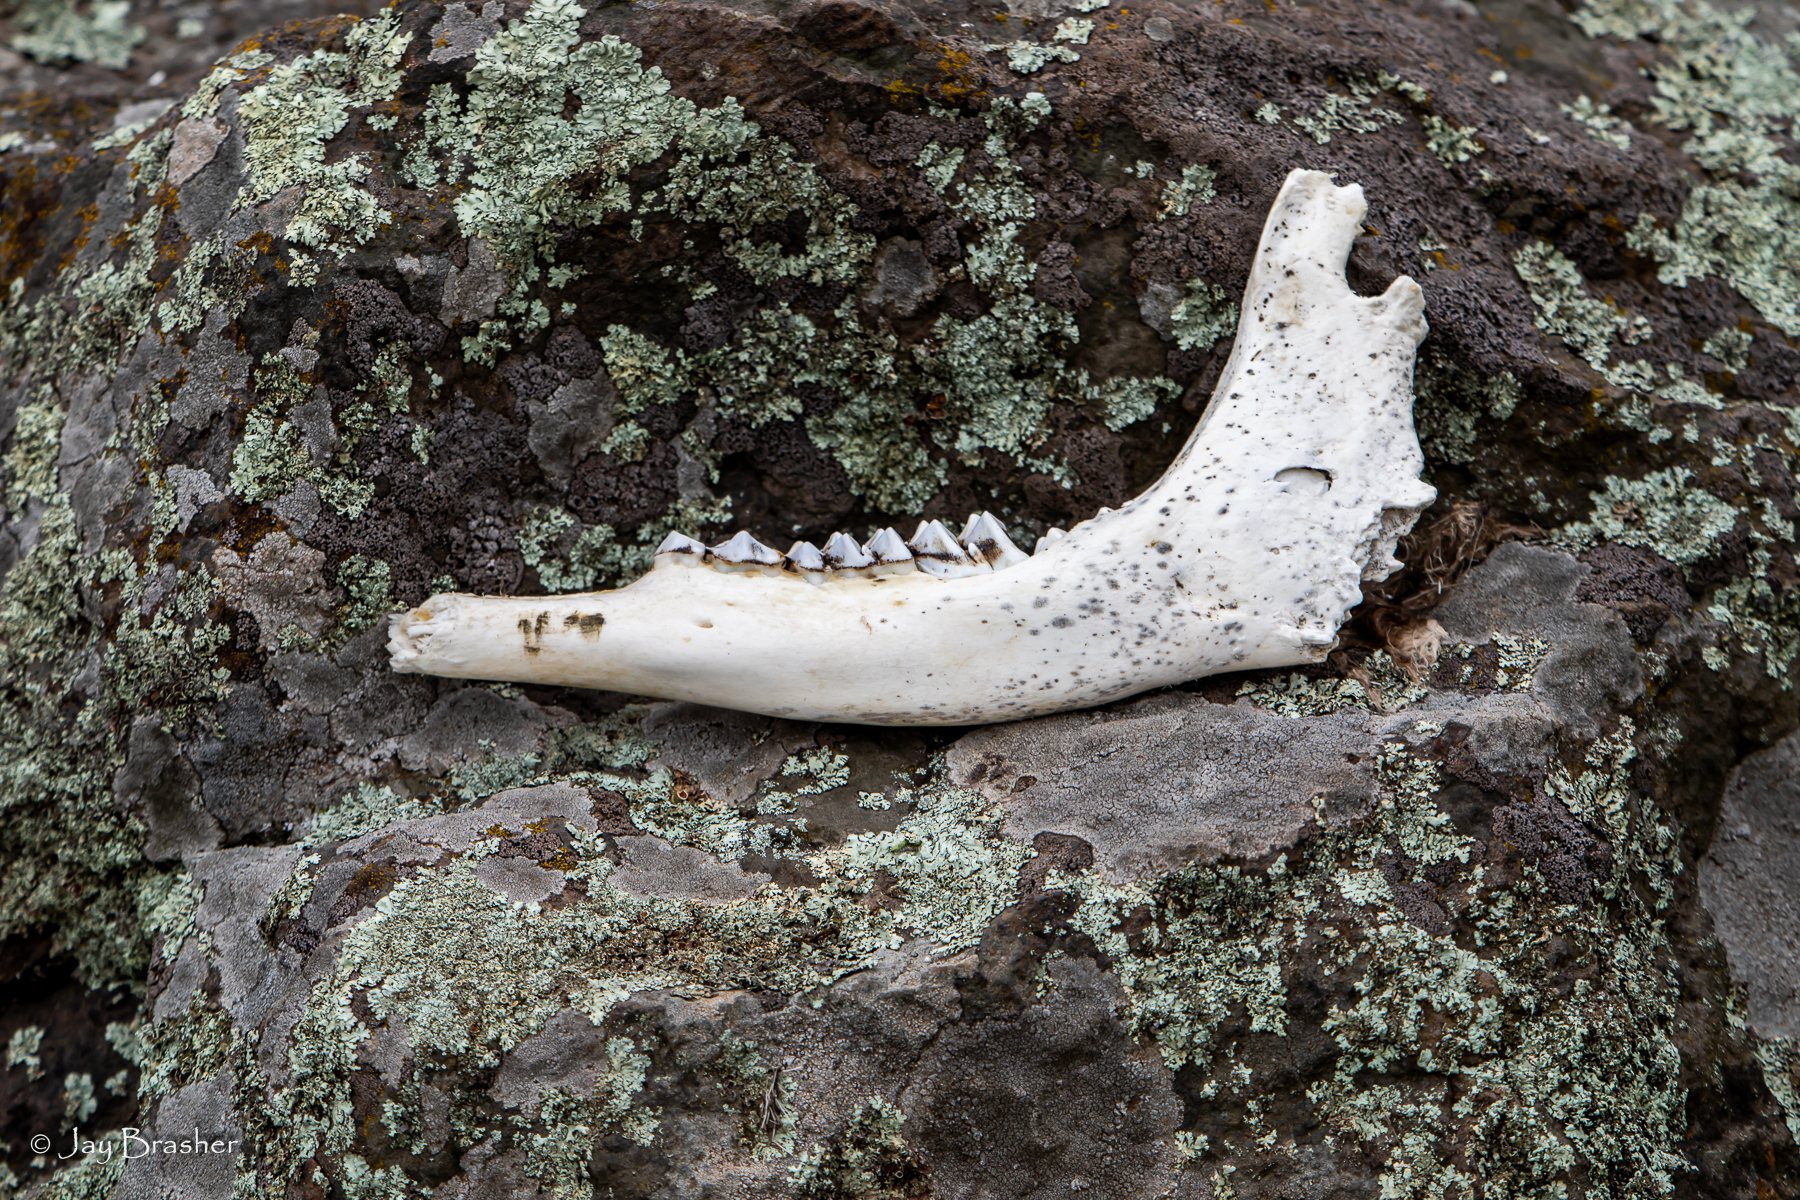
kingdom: Animalia
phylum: Chordata
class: Mammalia
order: Artiodactyla
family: Cervidae
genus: Alces
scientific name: Alces americanus
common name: Moose
